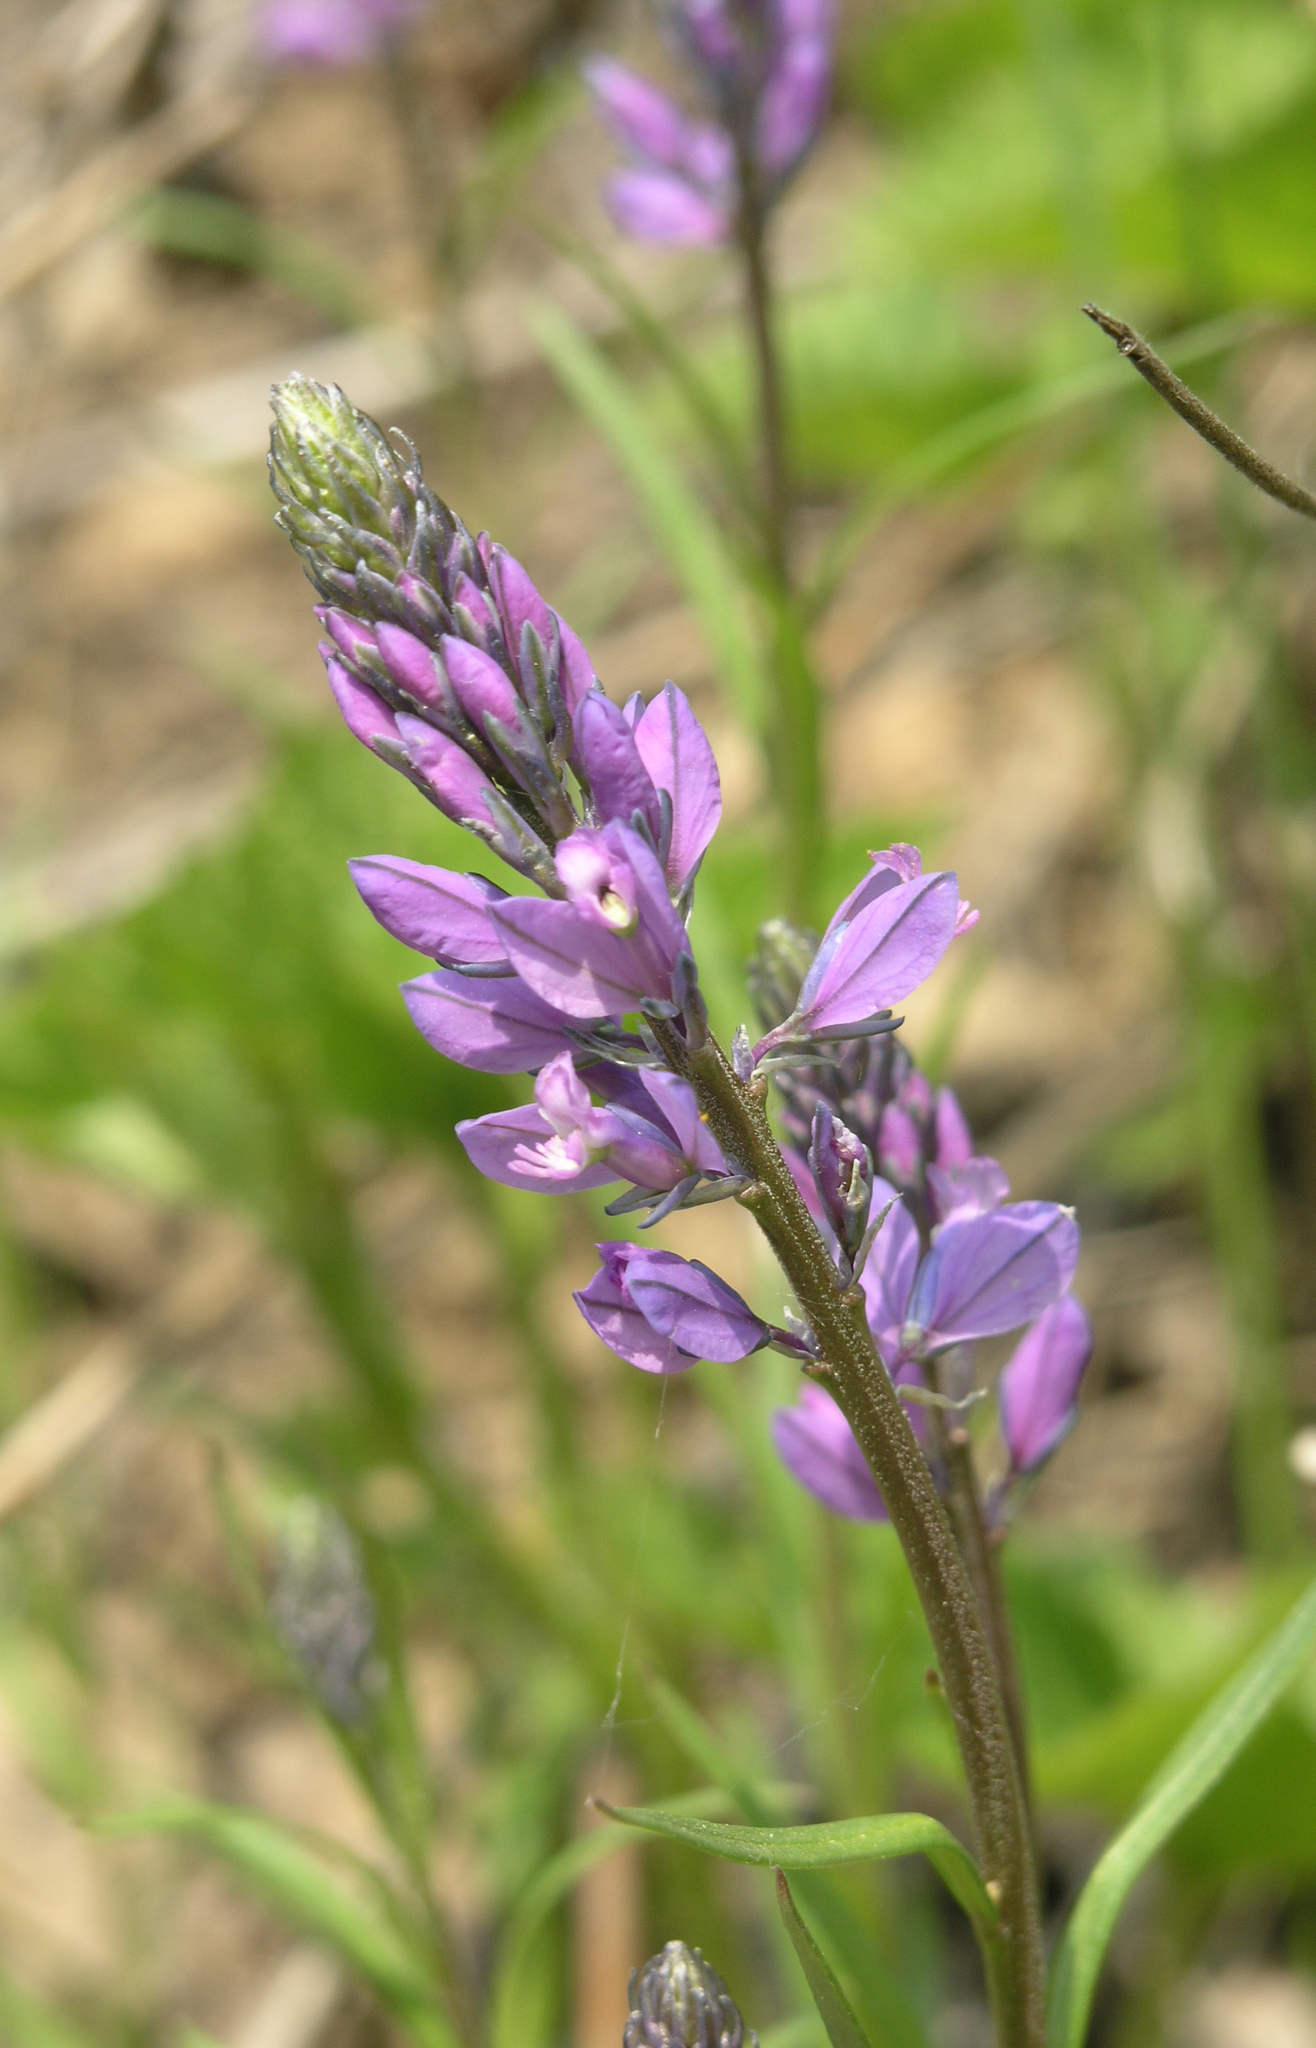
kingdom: Plantae
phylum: Tracheophyta
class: Magnoliopsida
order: Fabales
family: Polygalaceae
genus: Polygala
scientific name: Polygala comosa
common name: Tufted milkwort
